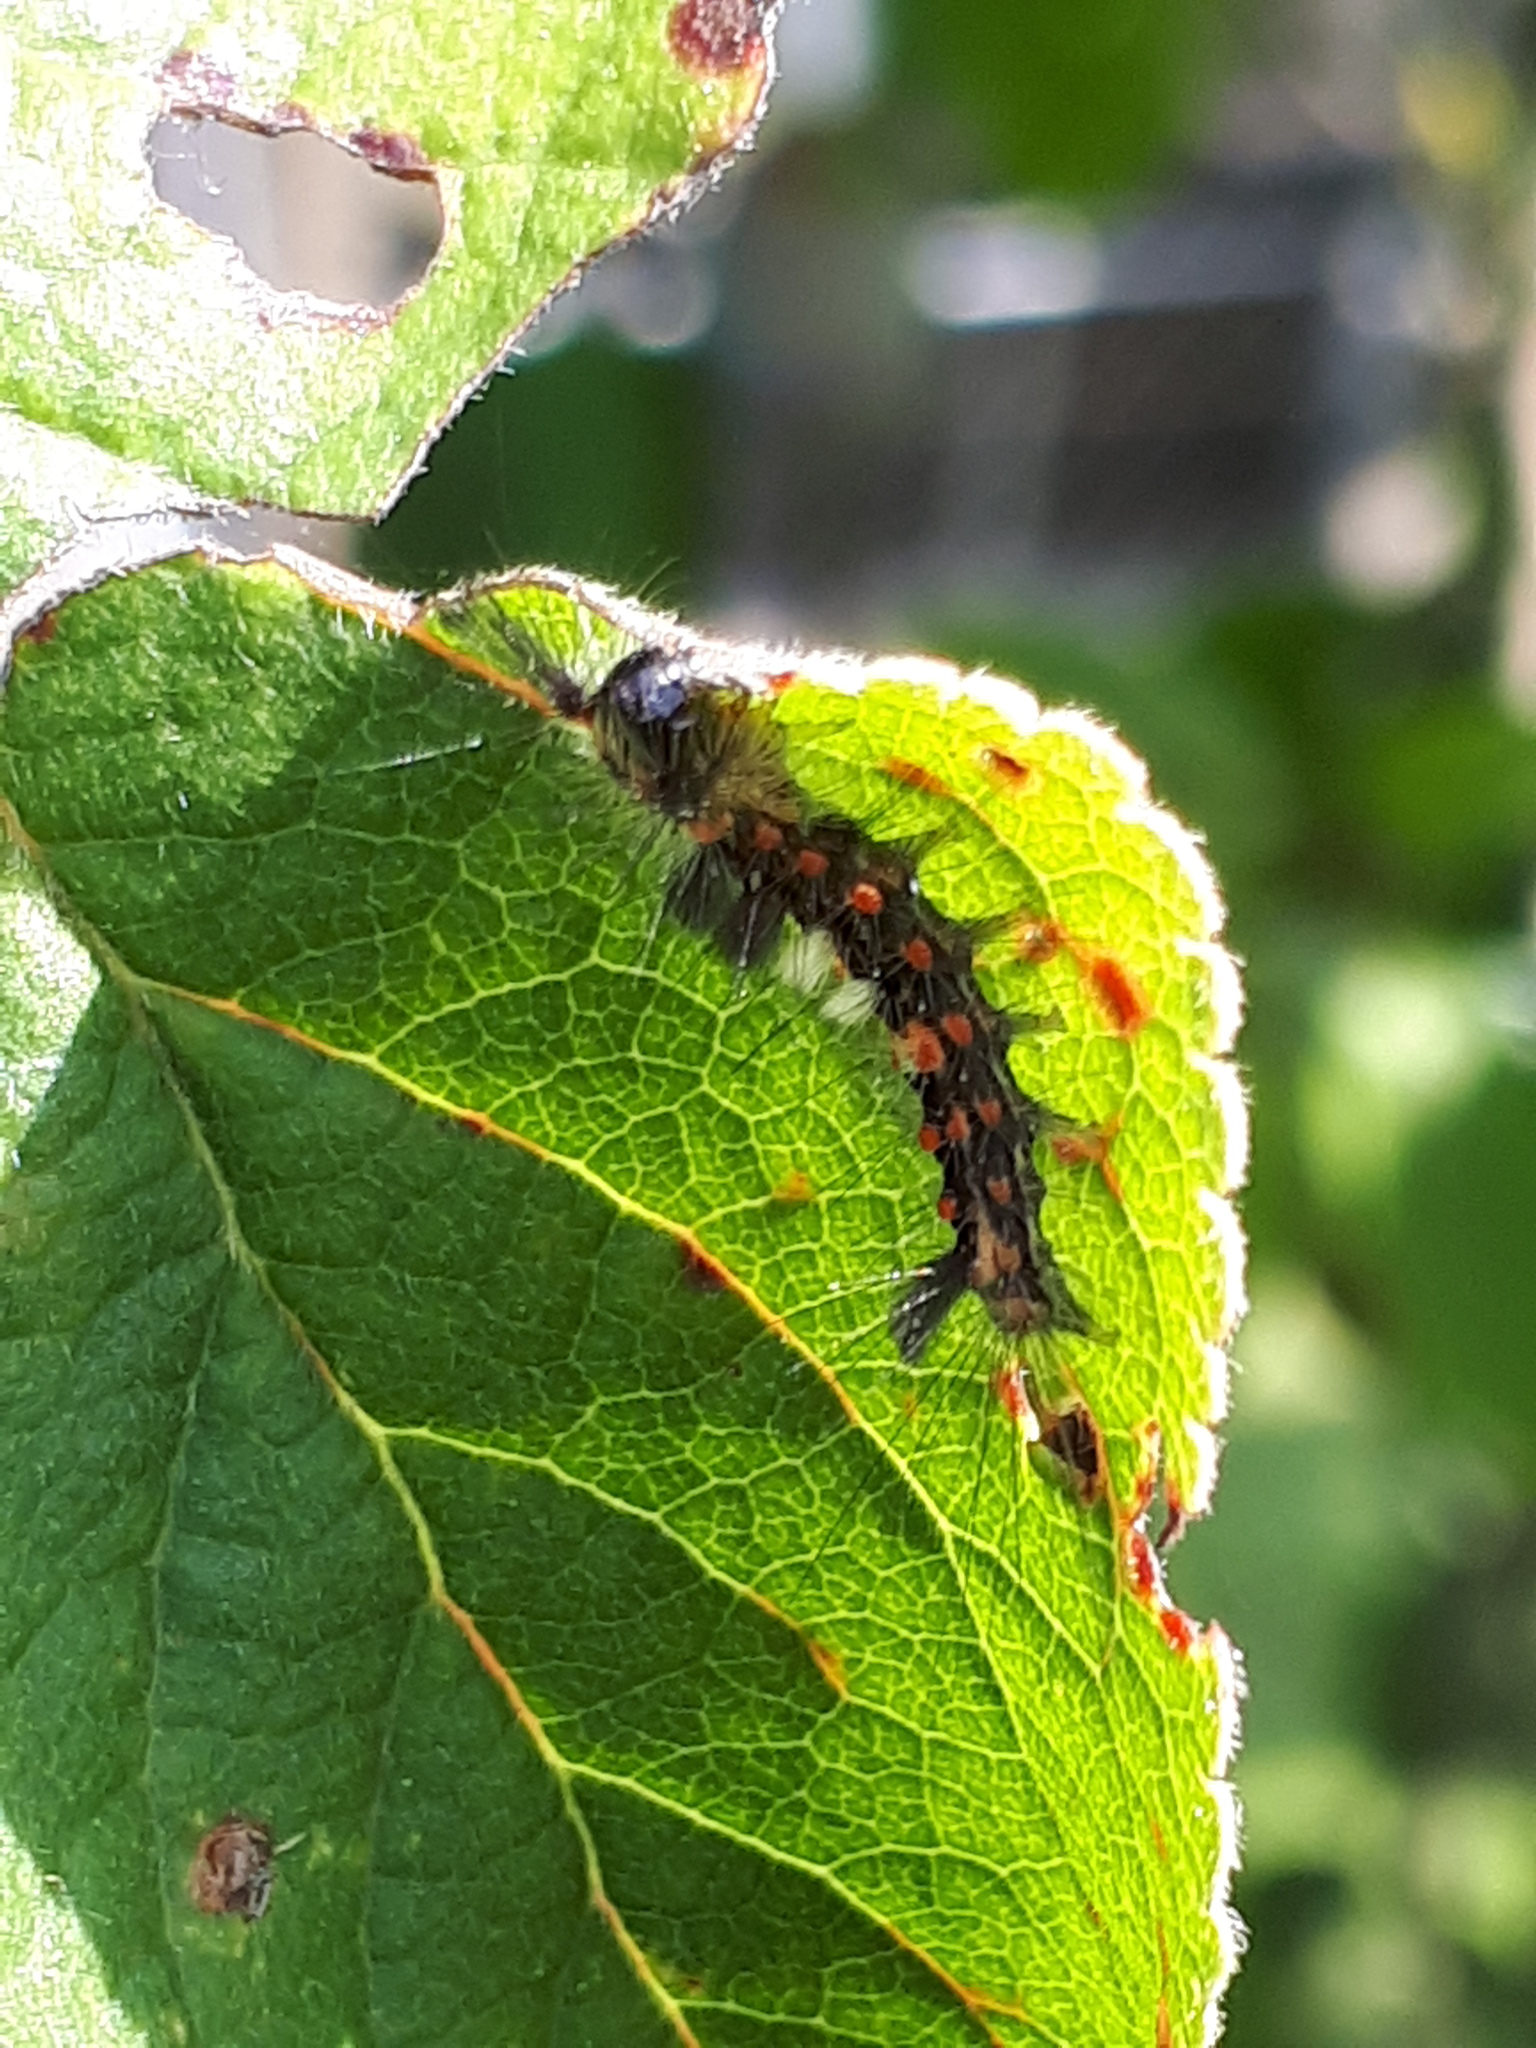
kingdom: Animalia
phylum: Arthropoda
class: Insecta
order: Lepidoptera
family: Erebidae
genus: Orgyia
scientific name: Orgyia antiqua
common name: Vapourer
